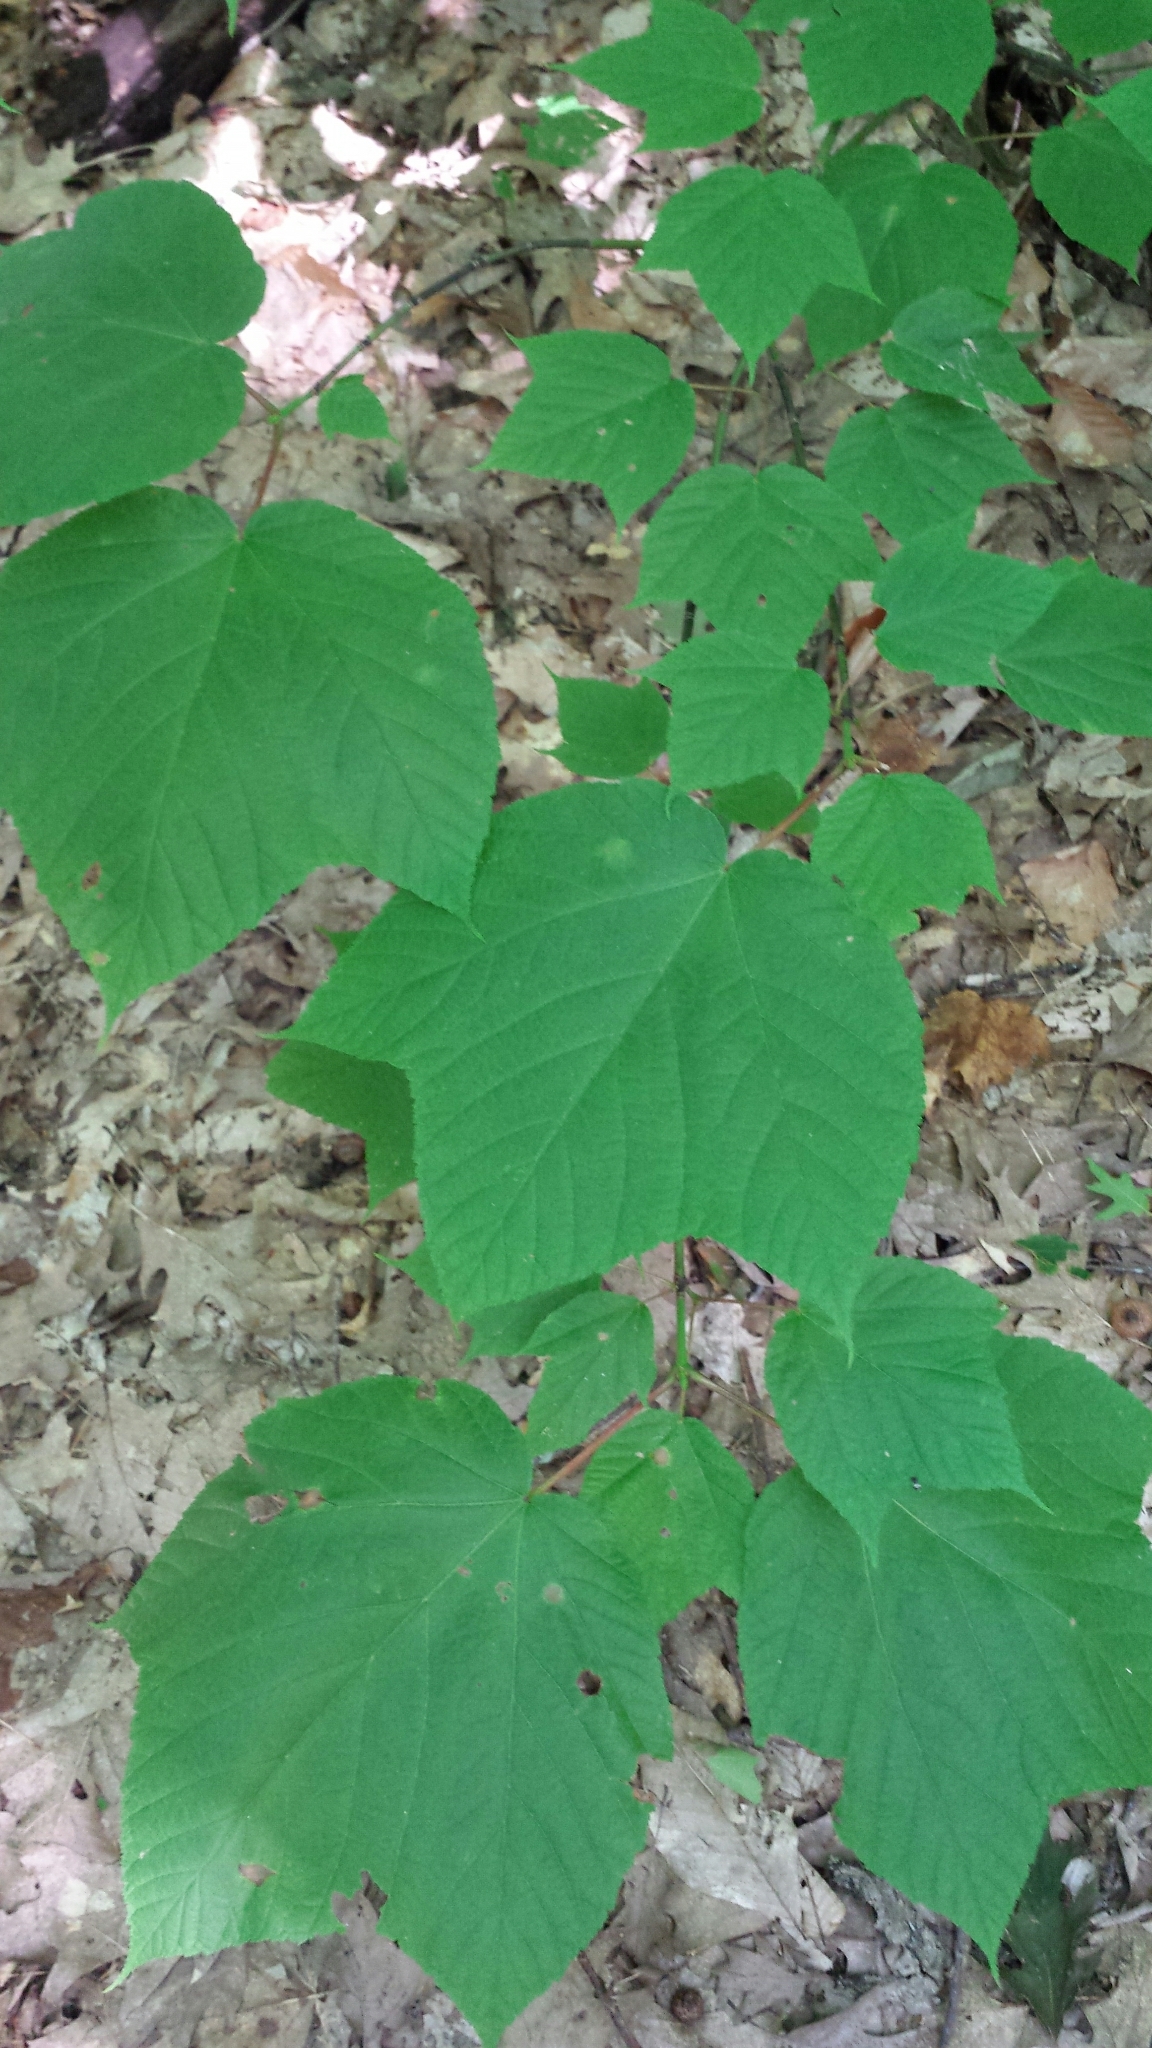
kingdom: Plantae
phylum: Tracheophyta
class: Magnoliopsida
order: Sapindales
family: Sapindaceae
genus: Acer
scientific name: Acer pensylvanicum
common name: Moosewood
